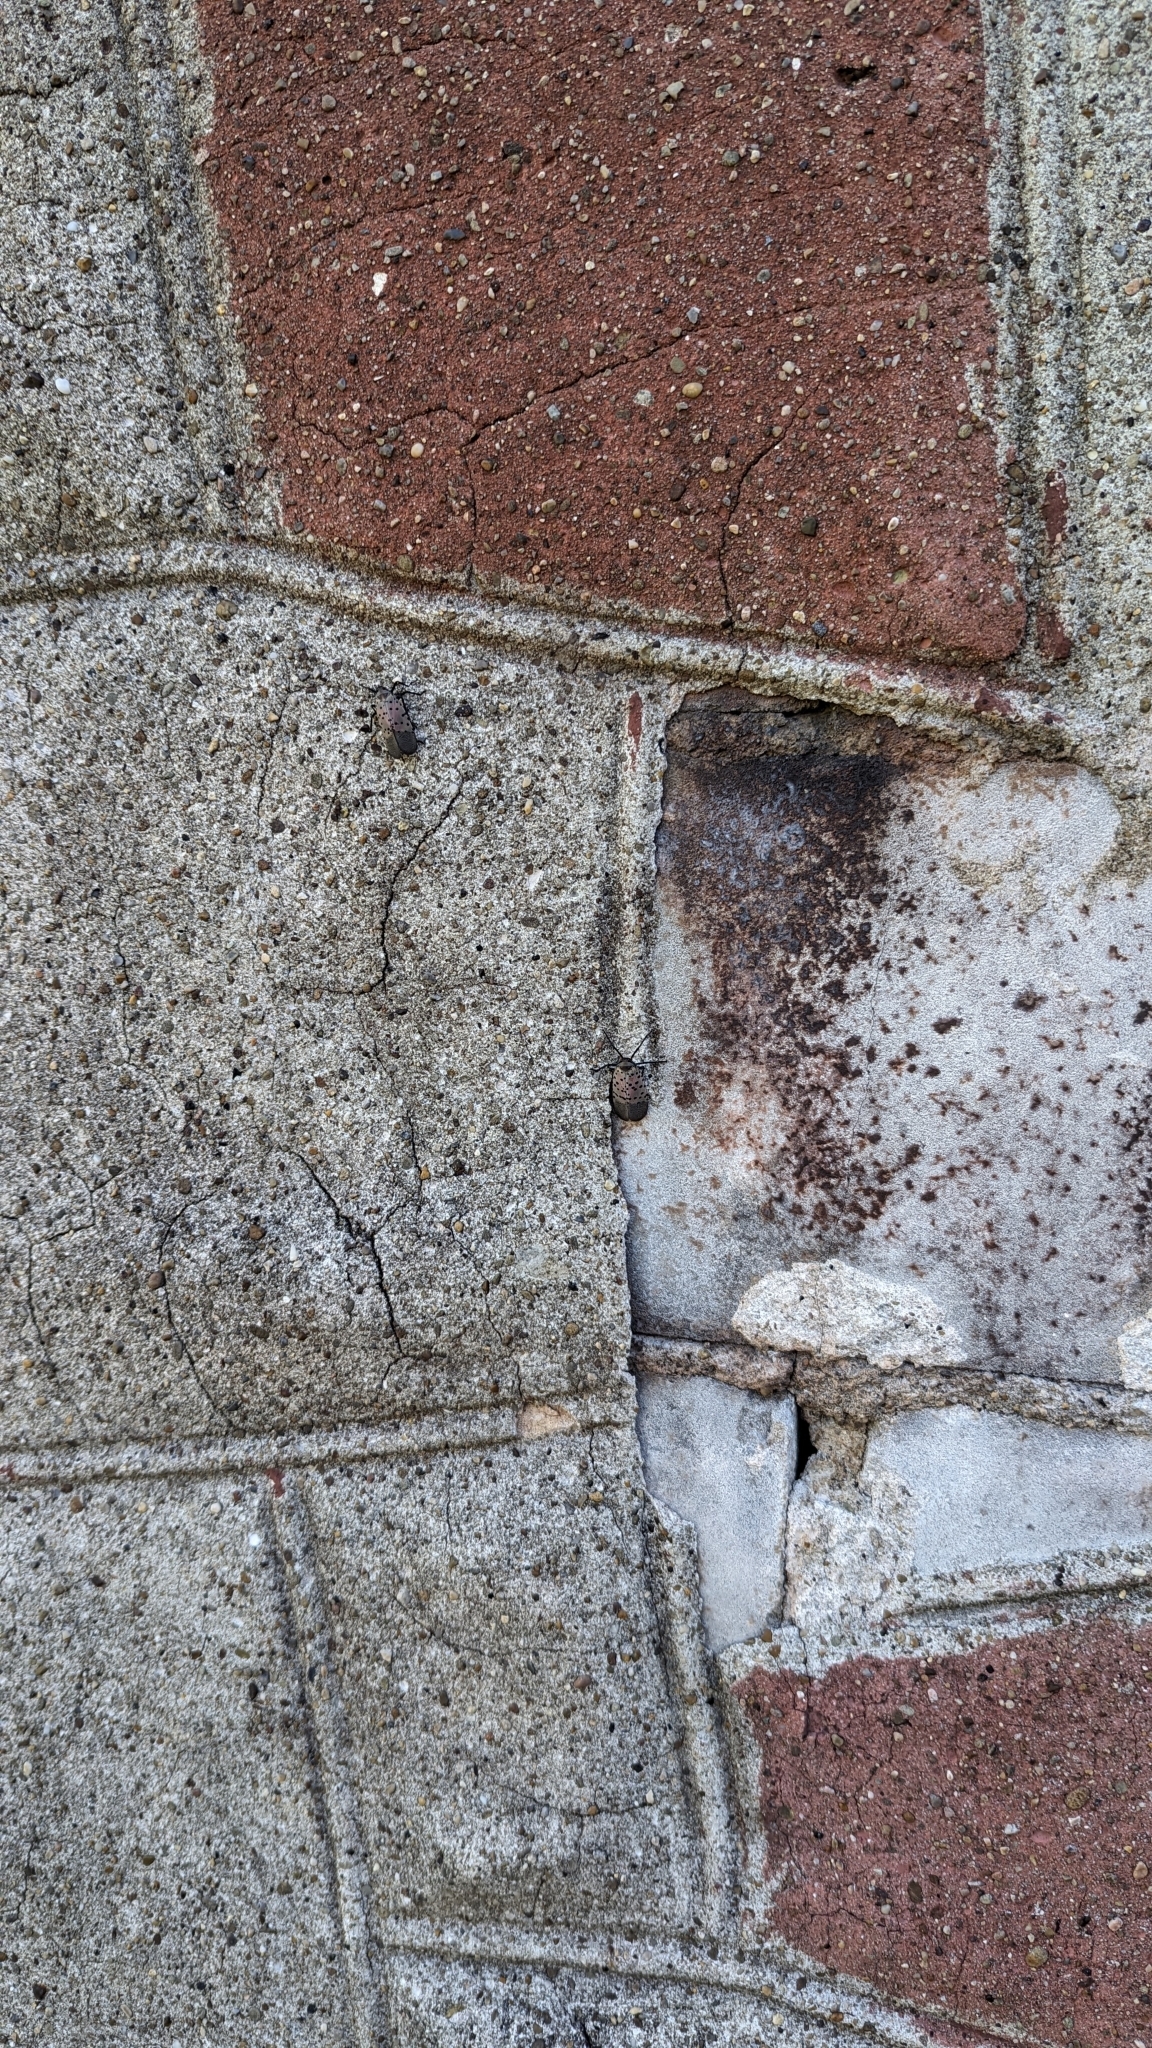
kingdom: Animalia
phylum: Arthropoda
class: Insecta
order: Hemiptera
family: Fulgoridae
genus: Lycorma
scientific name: Lycorma delicatula
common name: Spotted lanternfly
